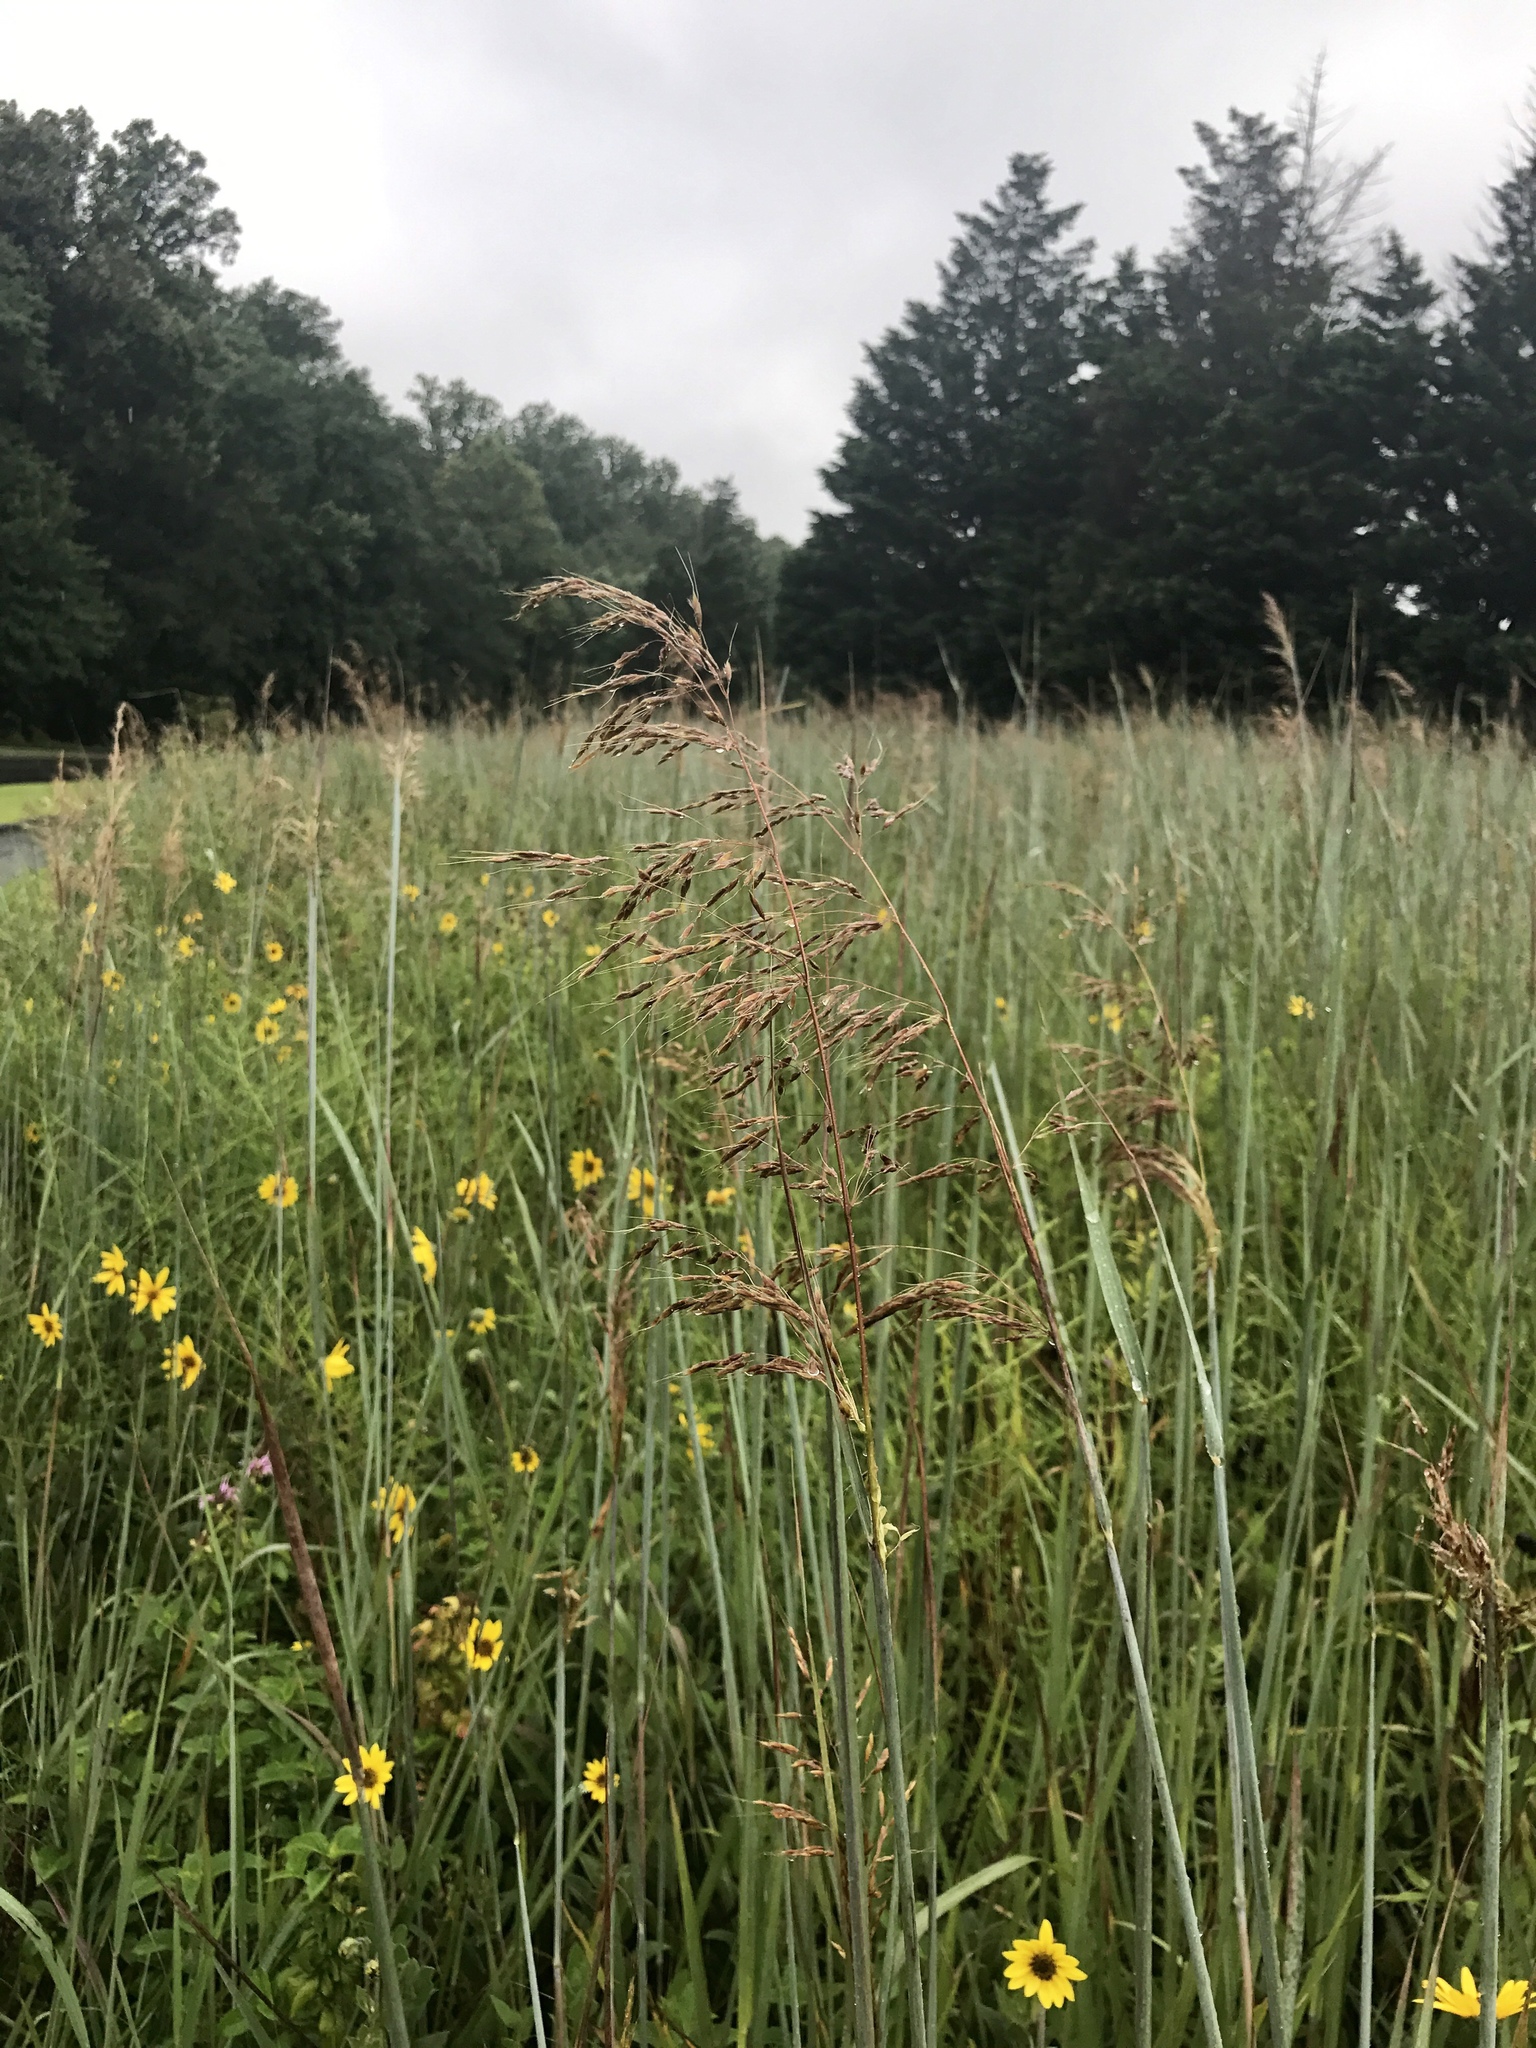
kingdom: Plantae
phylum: Tracheophyta
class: Liliopsida
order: Poales
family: Poaceae
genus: Sorghastrum
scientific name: Sorghastrum nutans
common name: Indian grass
